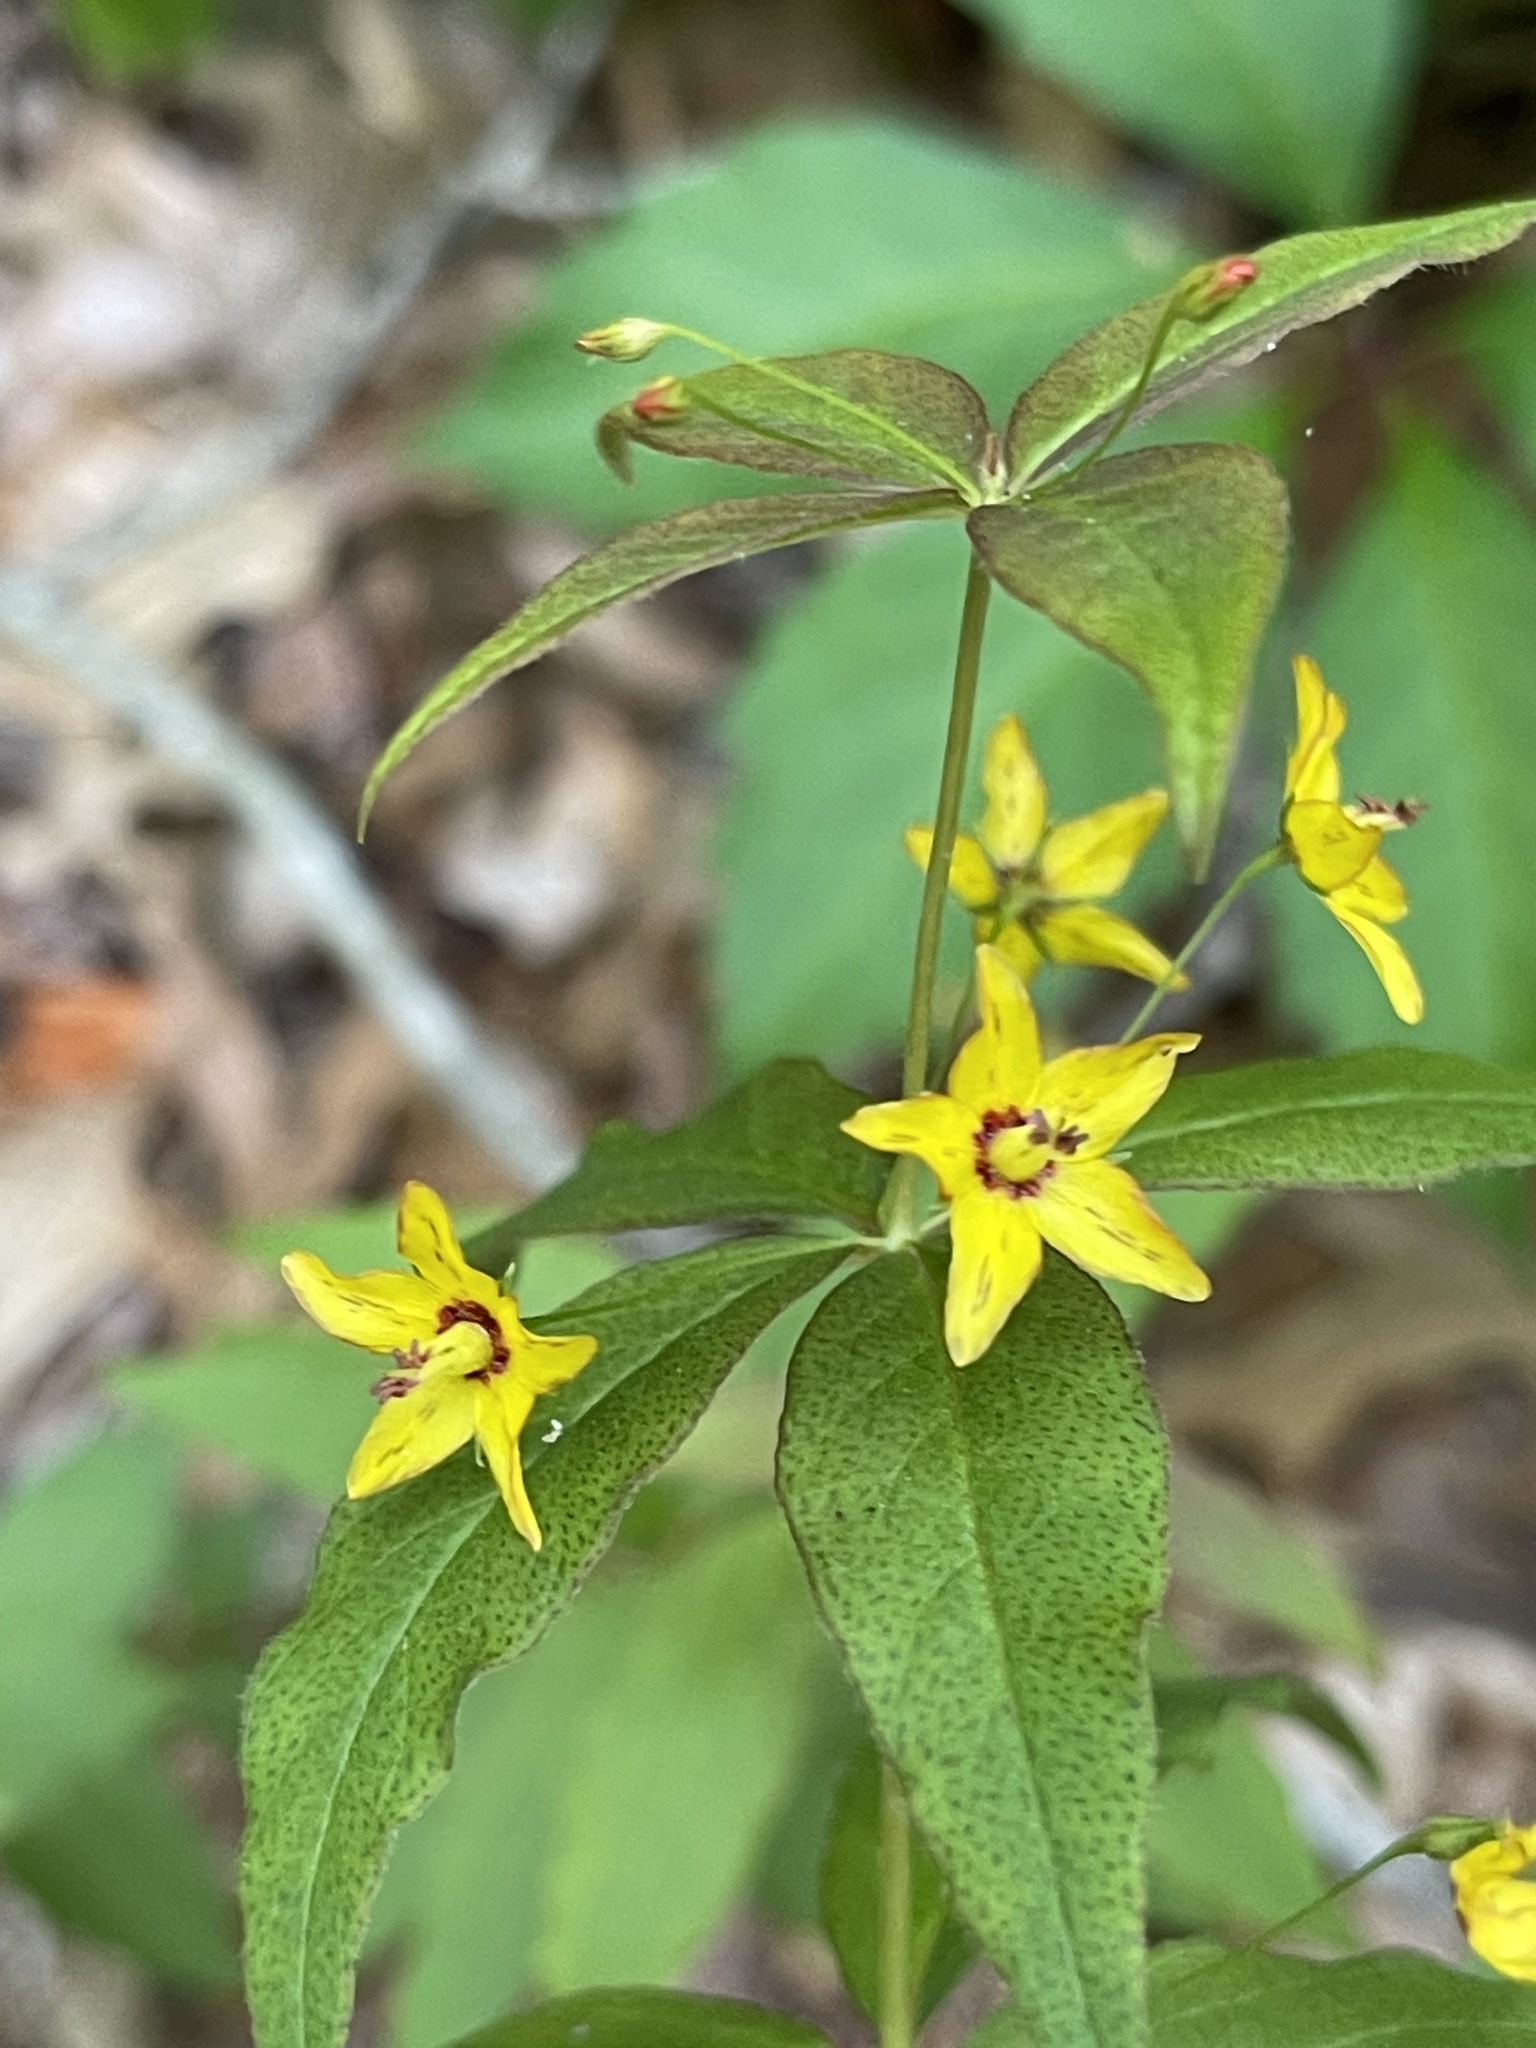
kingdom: Plantae
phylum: Tracheophyta
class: Magnoliopsida
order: Ericales
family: Primulaceae
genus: Lysimachia
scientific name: Lysimachia quadrifolia
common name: Whorled loosestrife
